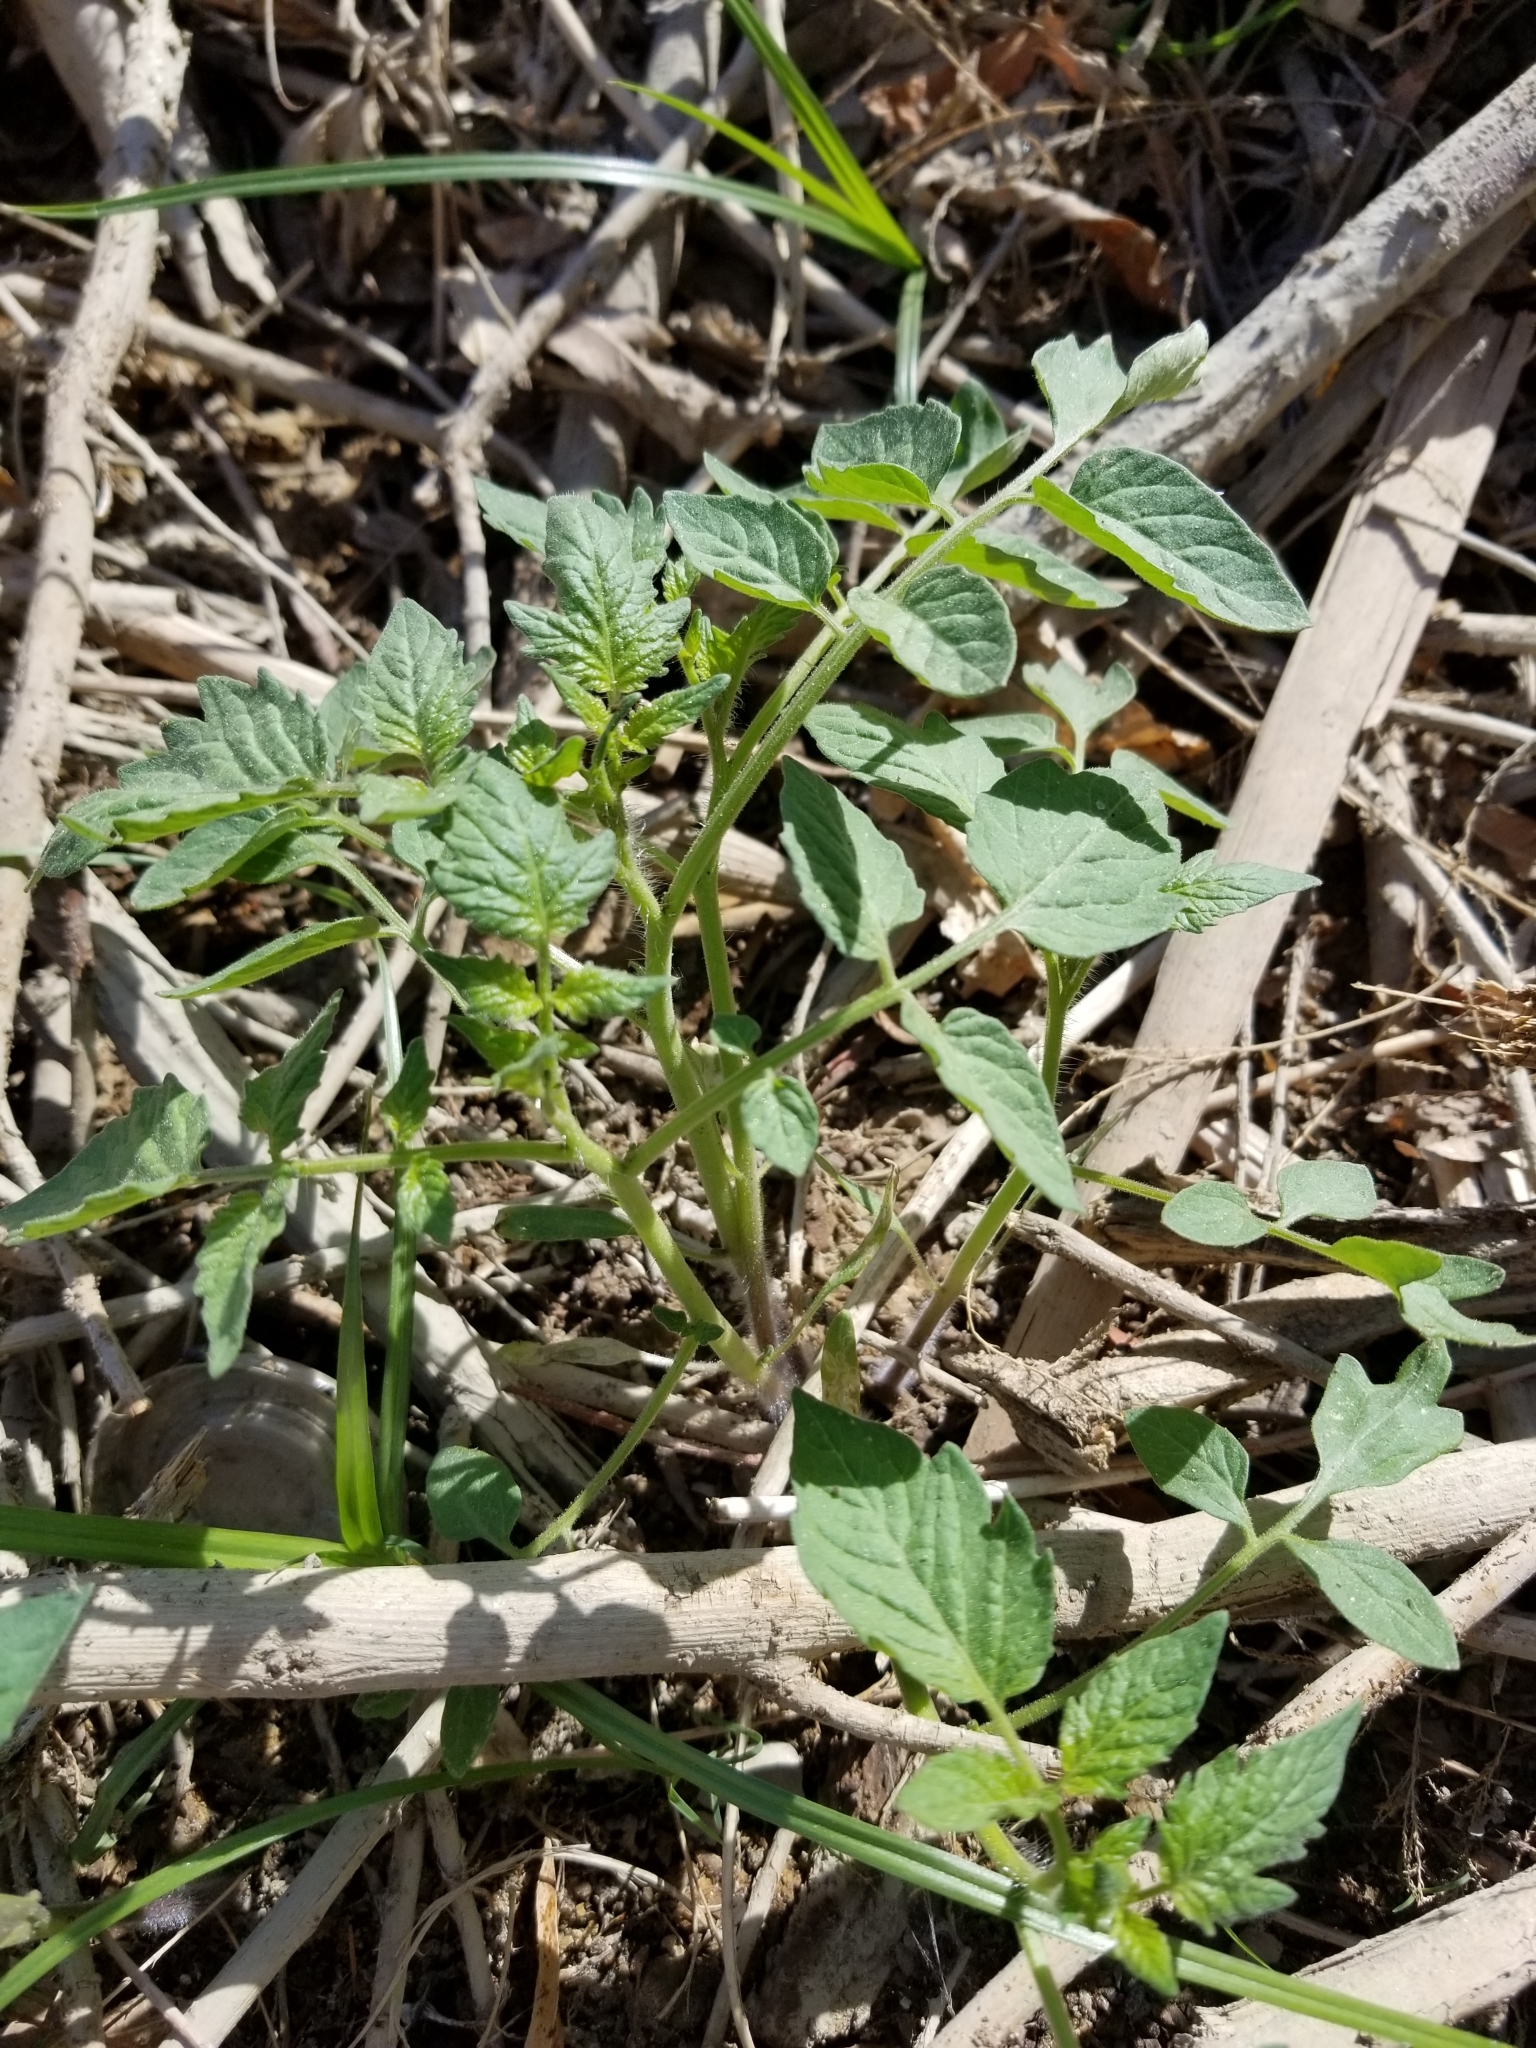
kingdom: Plantae
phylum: Tracheophyta
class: Magnoliopsida
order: Solanales
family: Solanaceae
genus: Solanum
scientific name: Solanum lycopersicum
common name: Garden tomato
